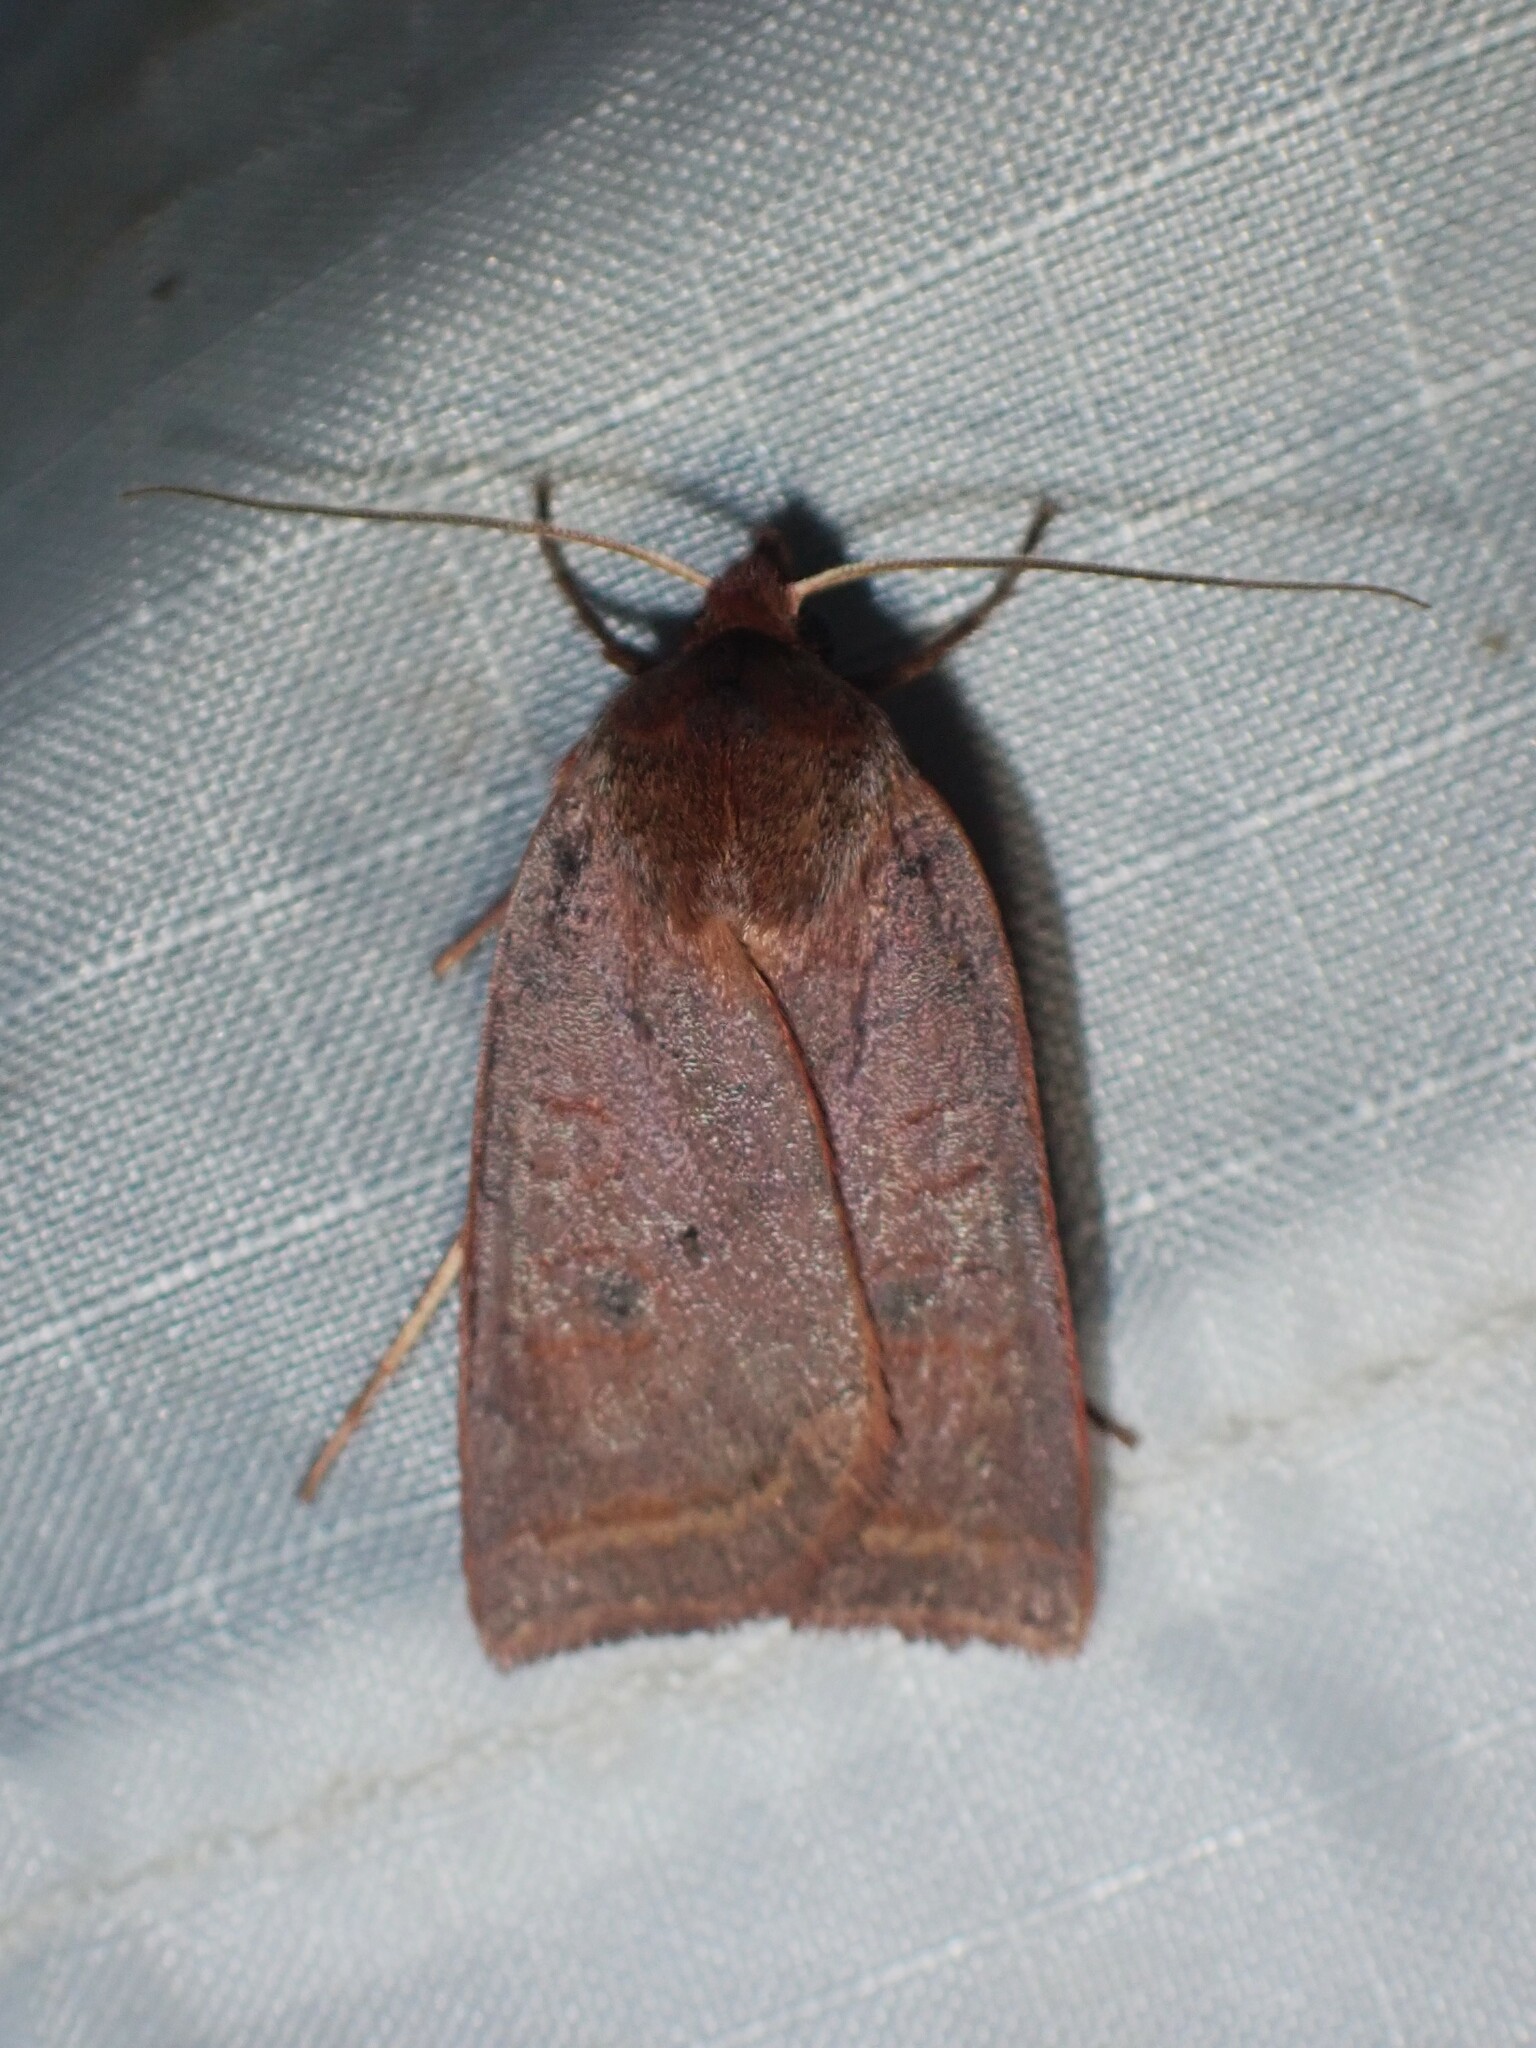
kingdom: Animalia
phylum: Arthropoda
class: Insecta
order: Lepidoptera
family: Noctuidae
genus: Epiglaea
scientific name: Epiglaea apiata
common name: Pointed sallow
